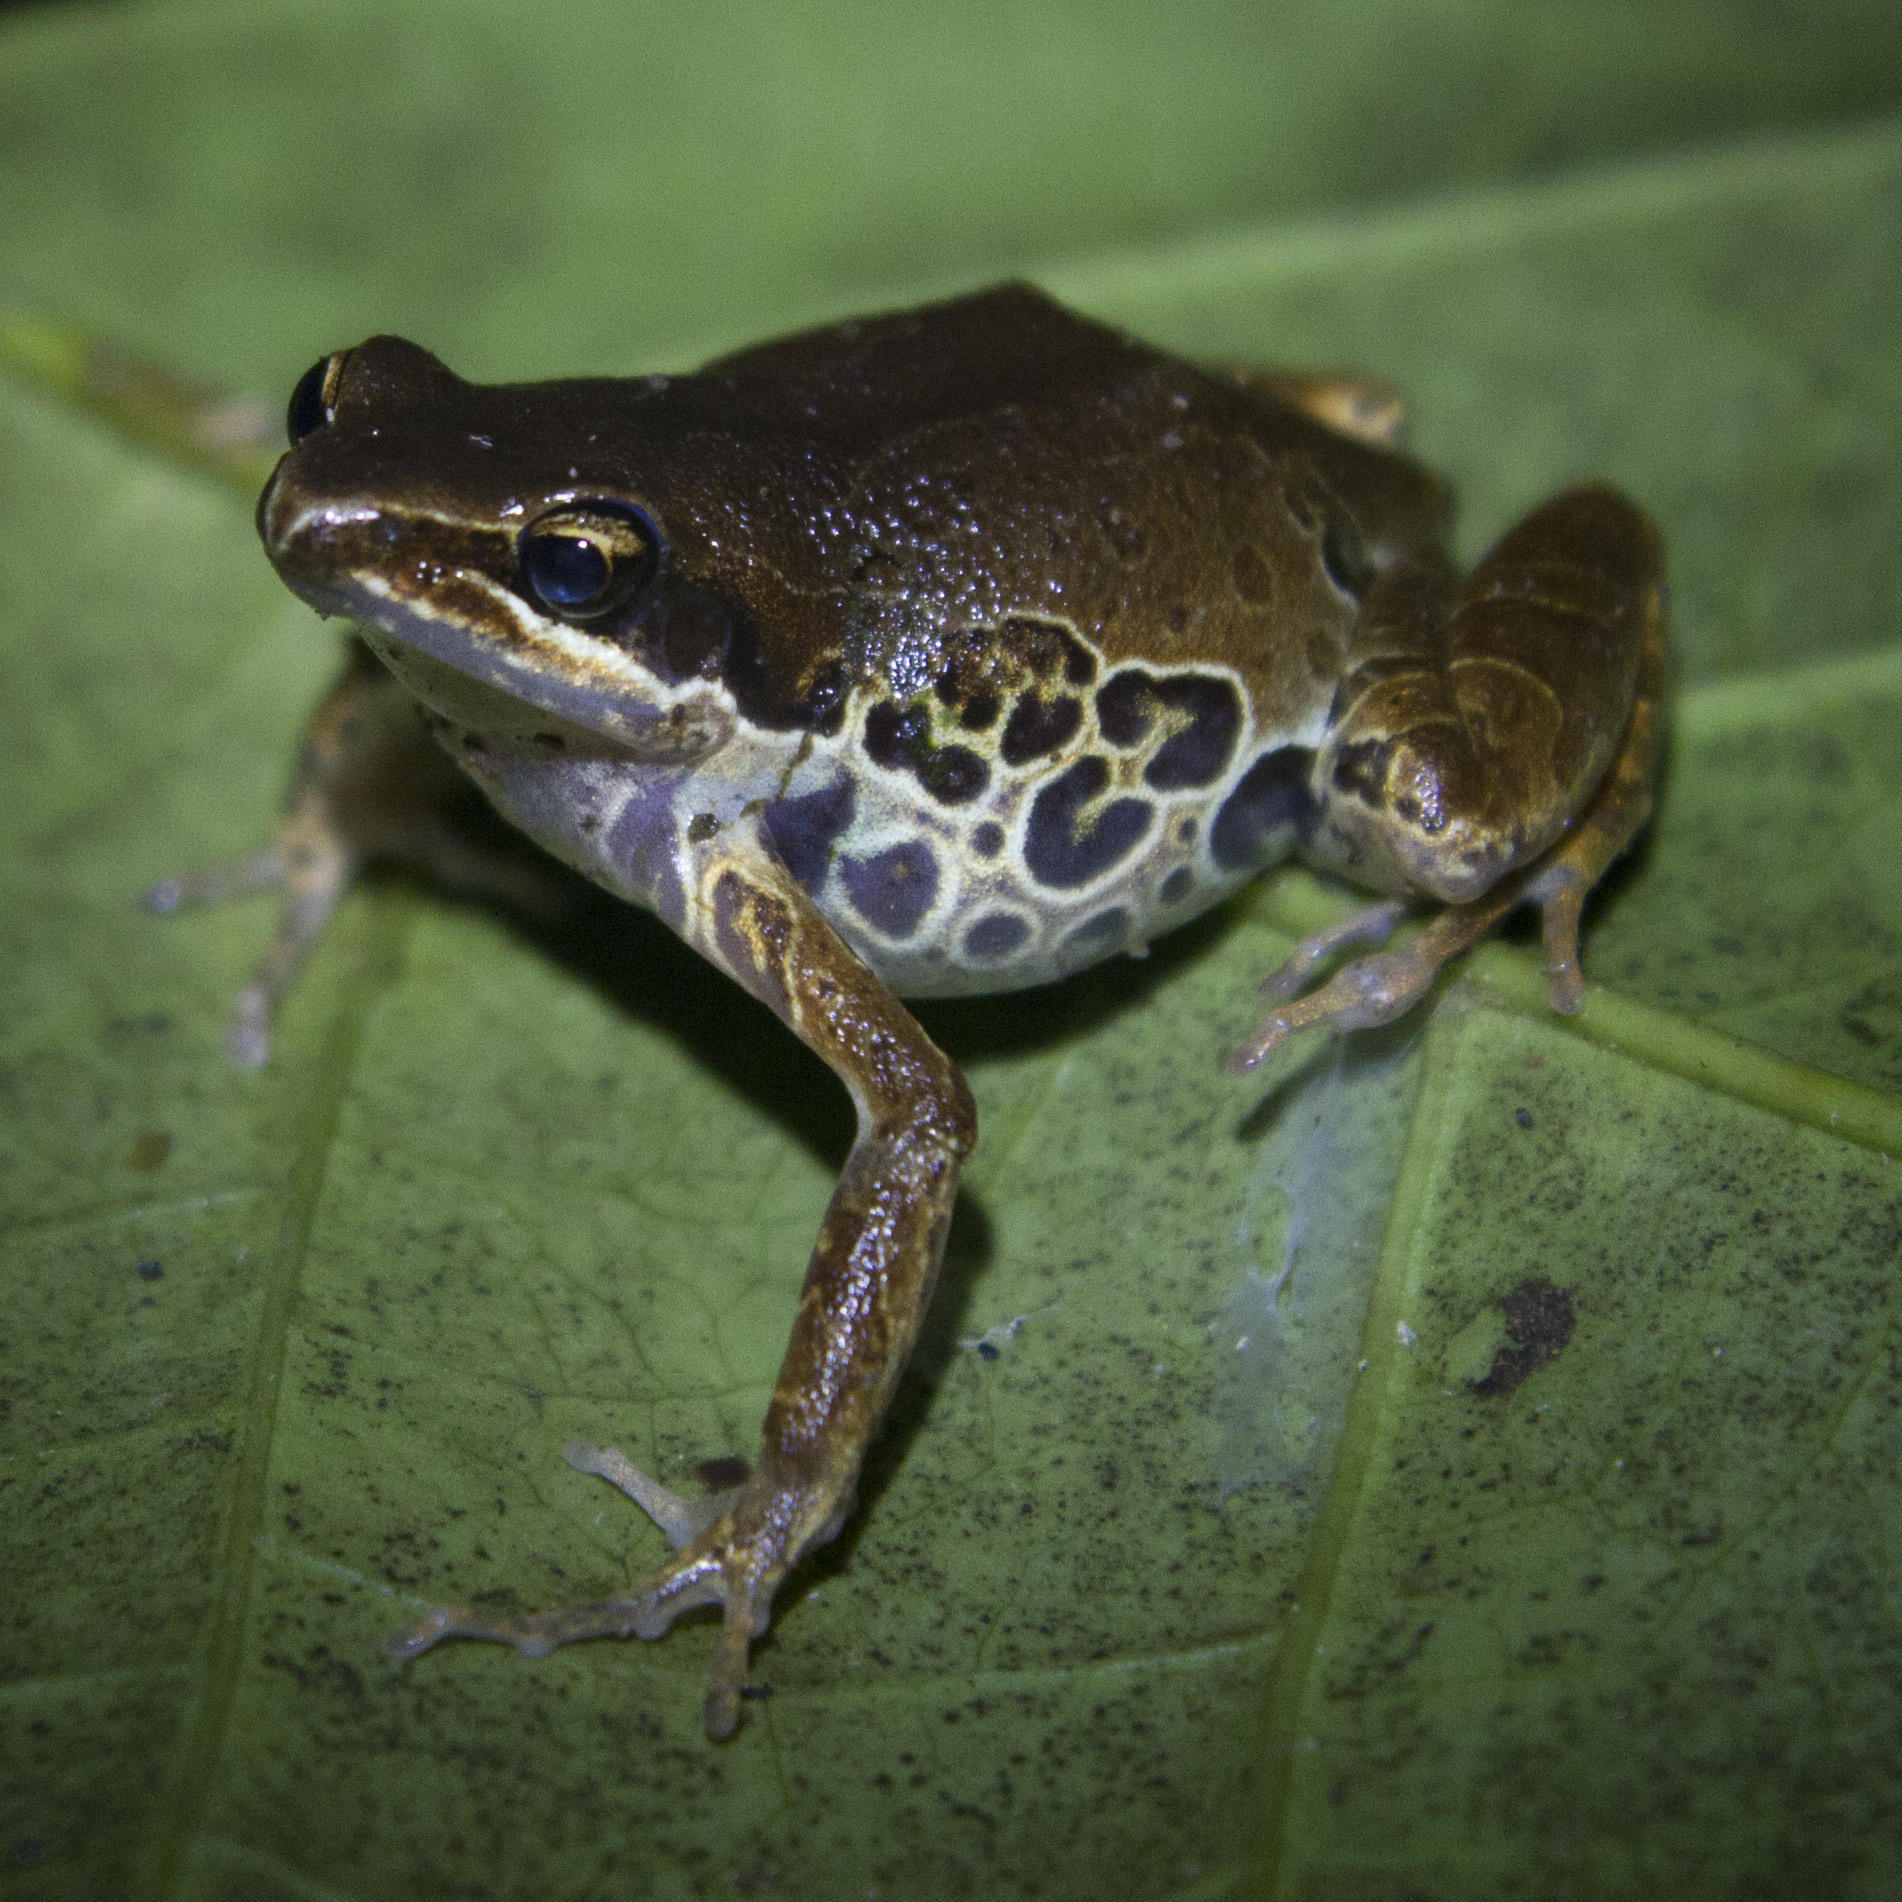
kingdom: Animalia
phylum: Chordata
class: Amphibia
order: Anura
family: Arthroleptidae
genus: Cardioglossa
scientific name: Cardioglossa leucomystax
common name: Silver long-fingered frog
